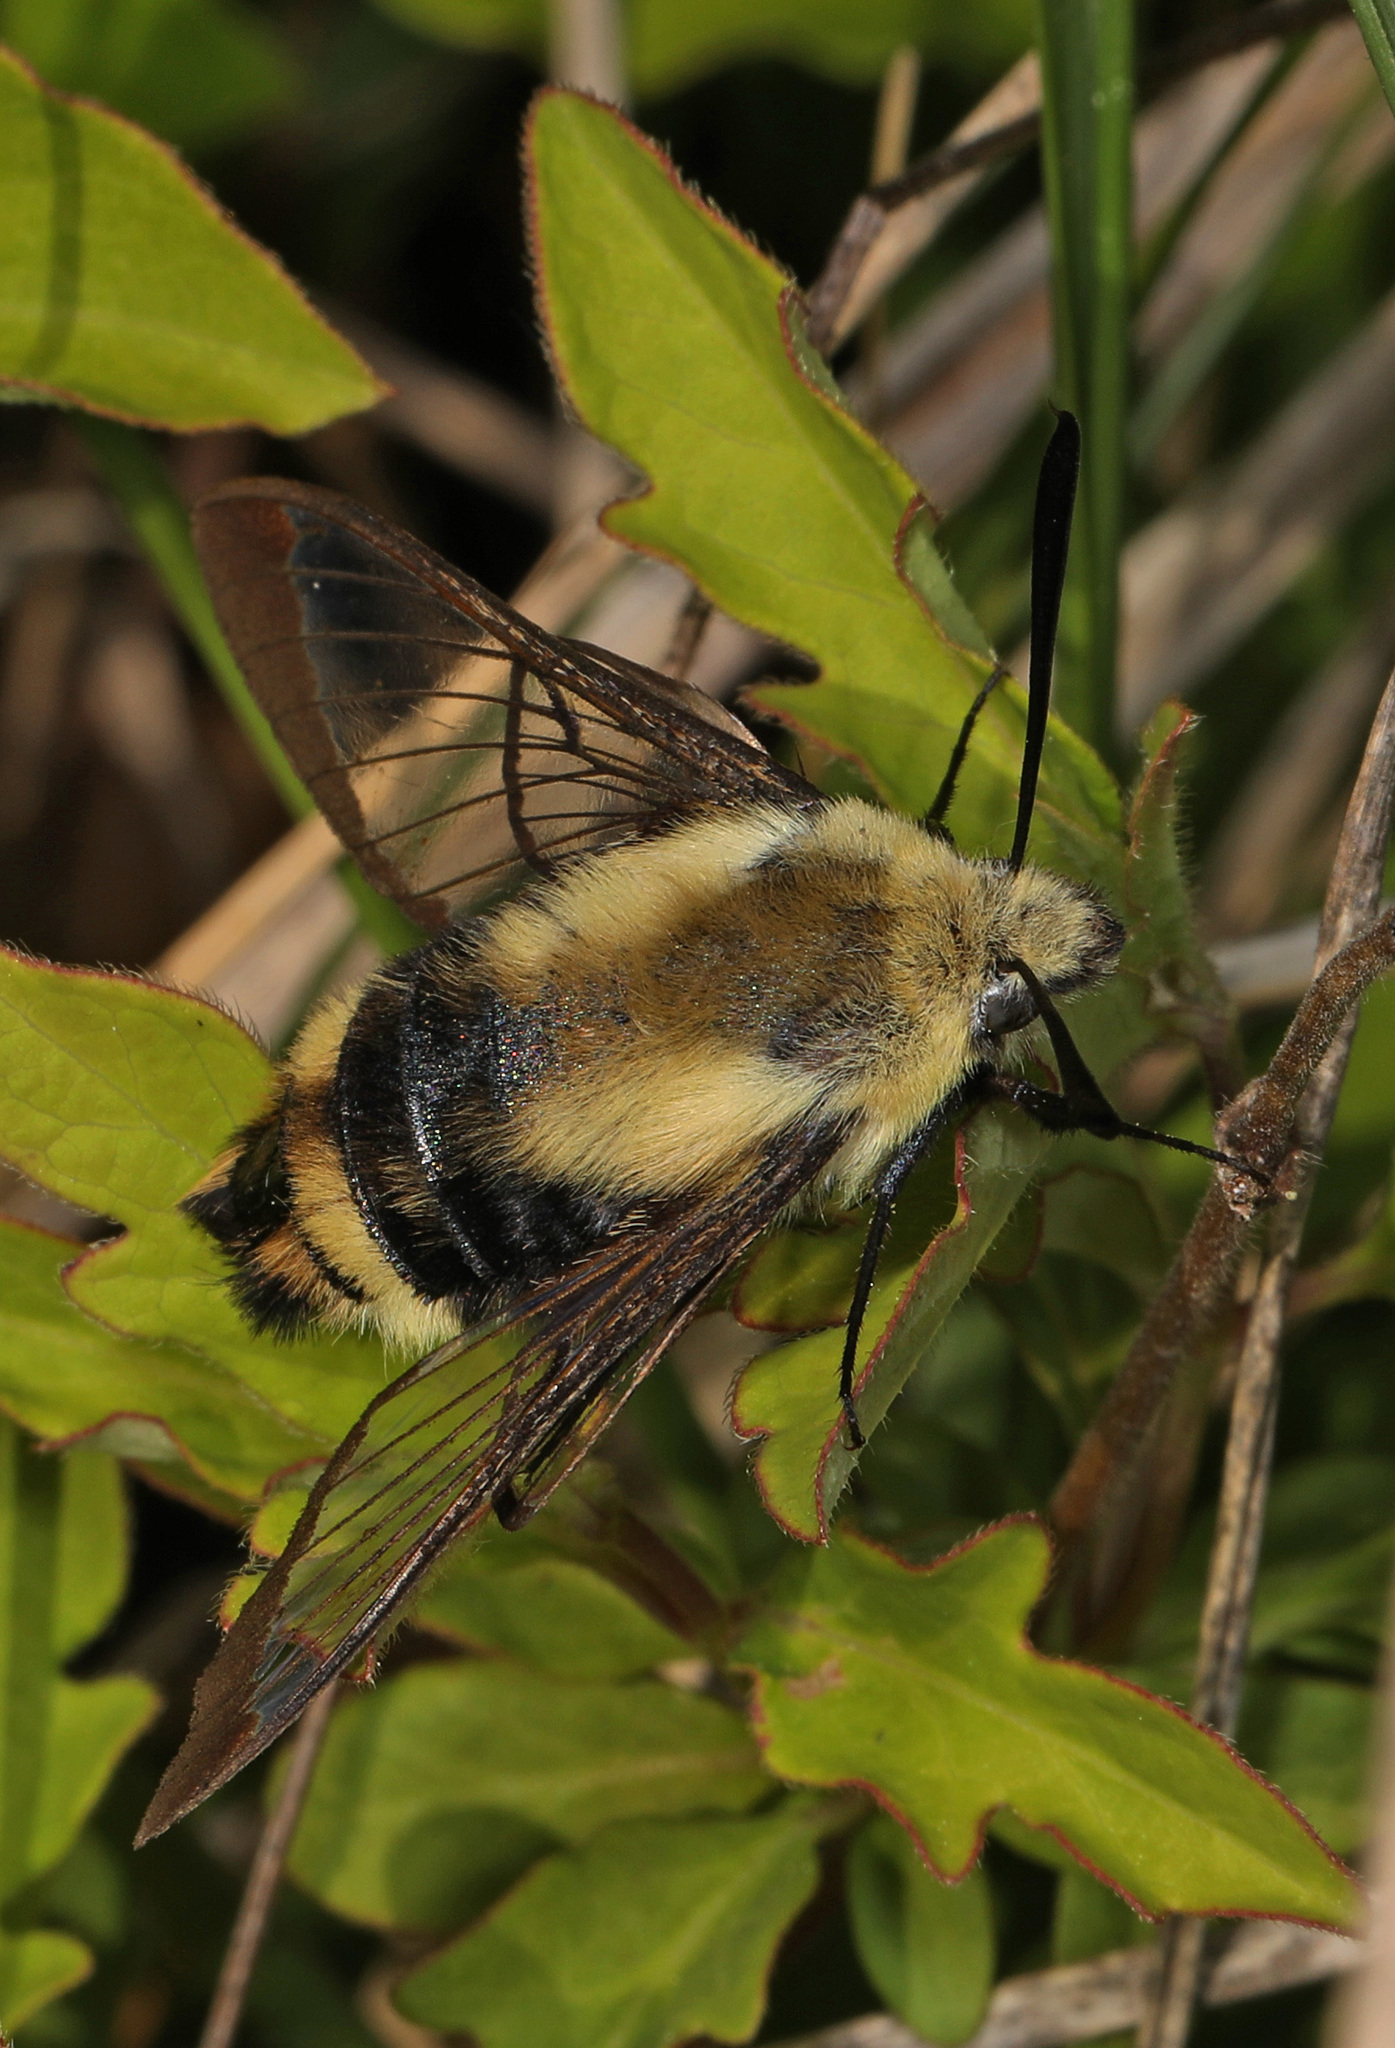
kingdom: Animalia
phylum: Arthropoda
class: Insecta
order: Lepidoptera
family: Sphingidae
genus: Hemaris
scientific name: Hemaris diffinis
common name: Bumblebee moth
